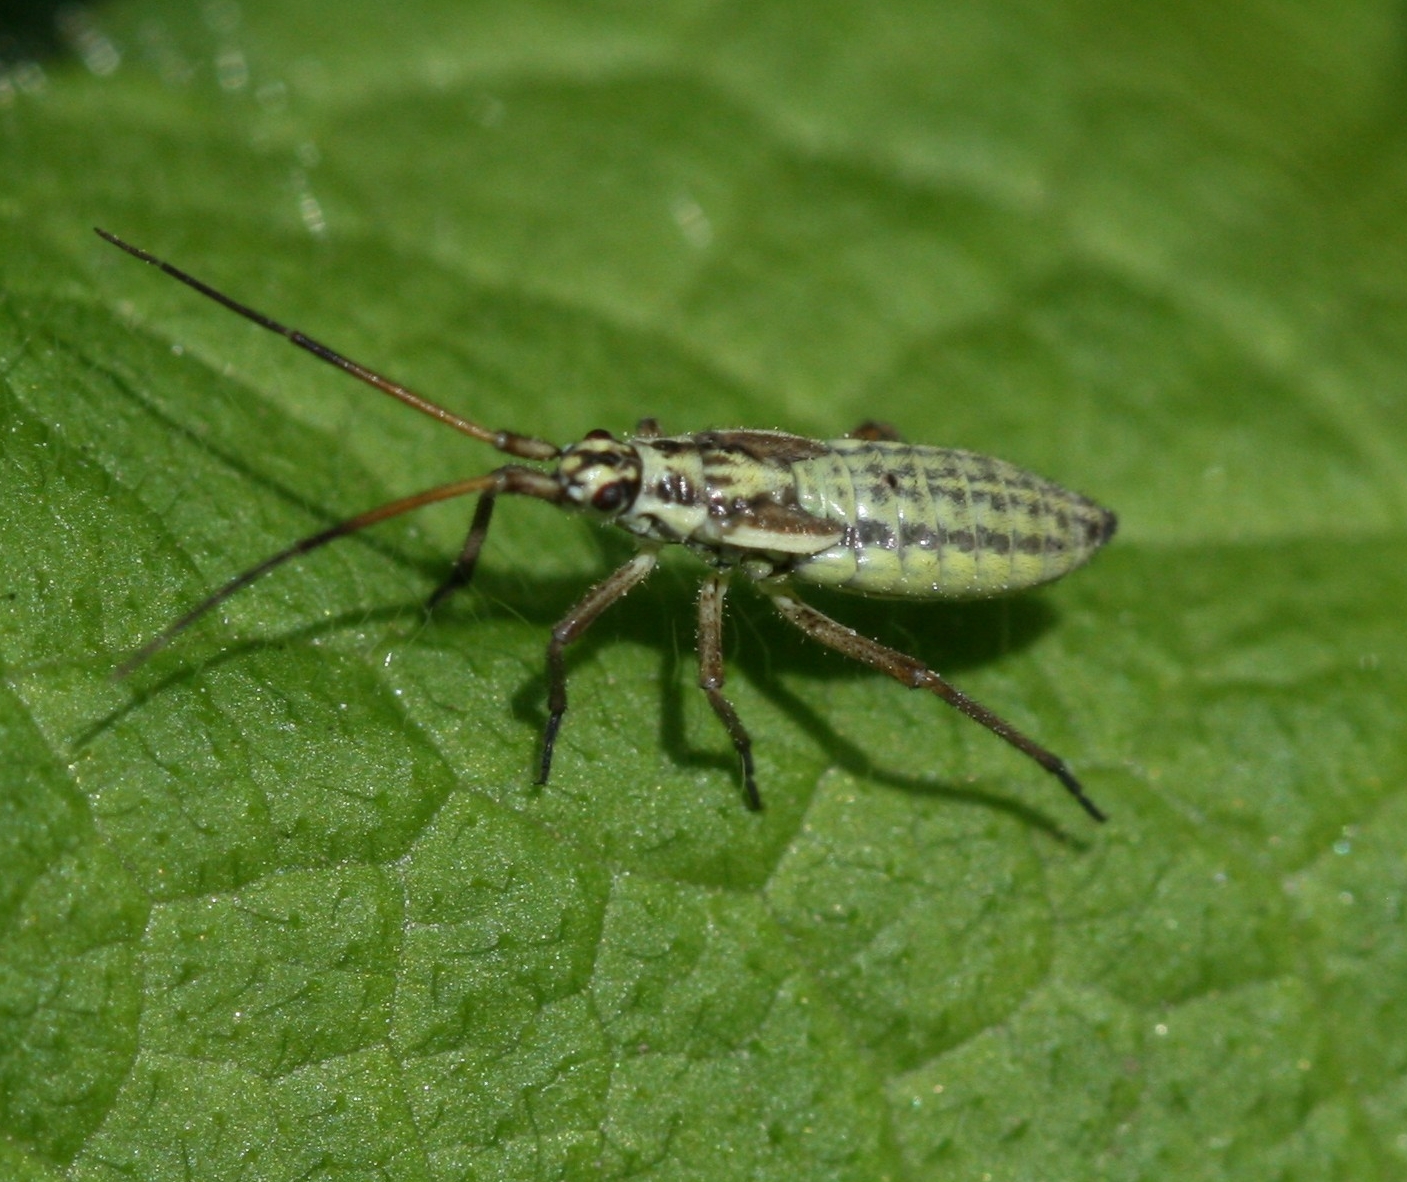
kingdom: Animalia
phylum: Arthropoda
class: Insecta
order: Hemiptera
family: Miridae
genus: Leptopterna
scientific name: Leptopterna dolabrata
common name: Meadow plant bug
